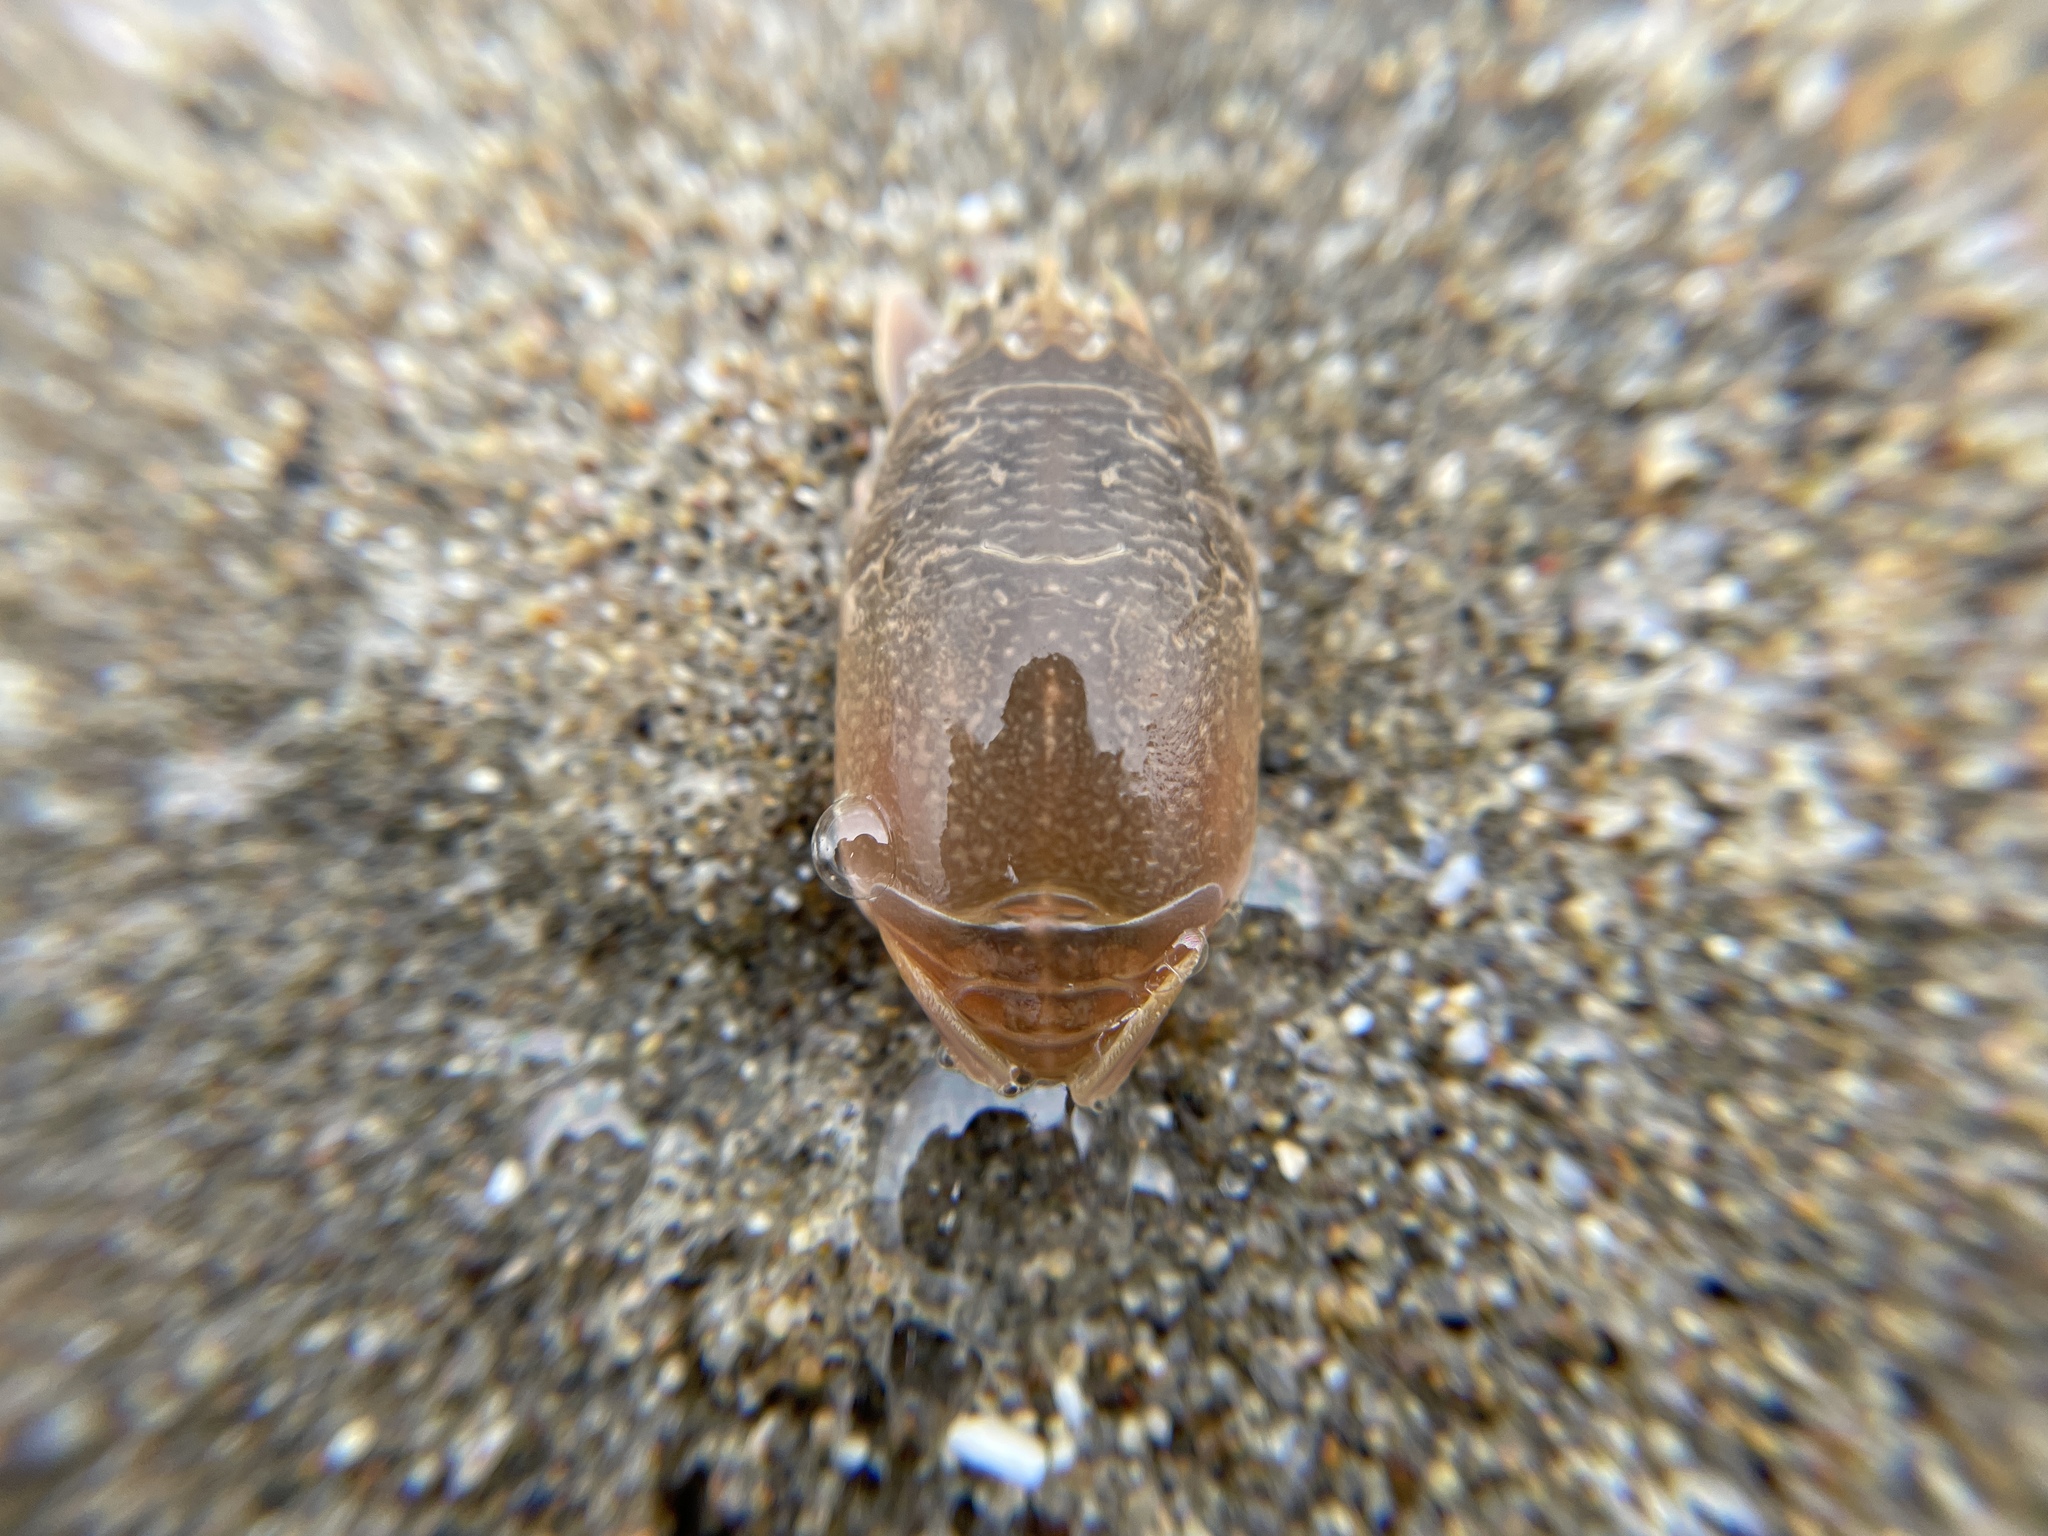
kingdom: Animalia
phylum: Arthropoda
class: Malacostraca
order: Decapoda
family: Hippidae
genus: Emerita
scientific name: Emerita analoga
